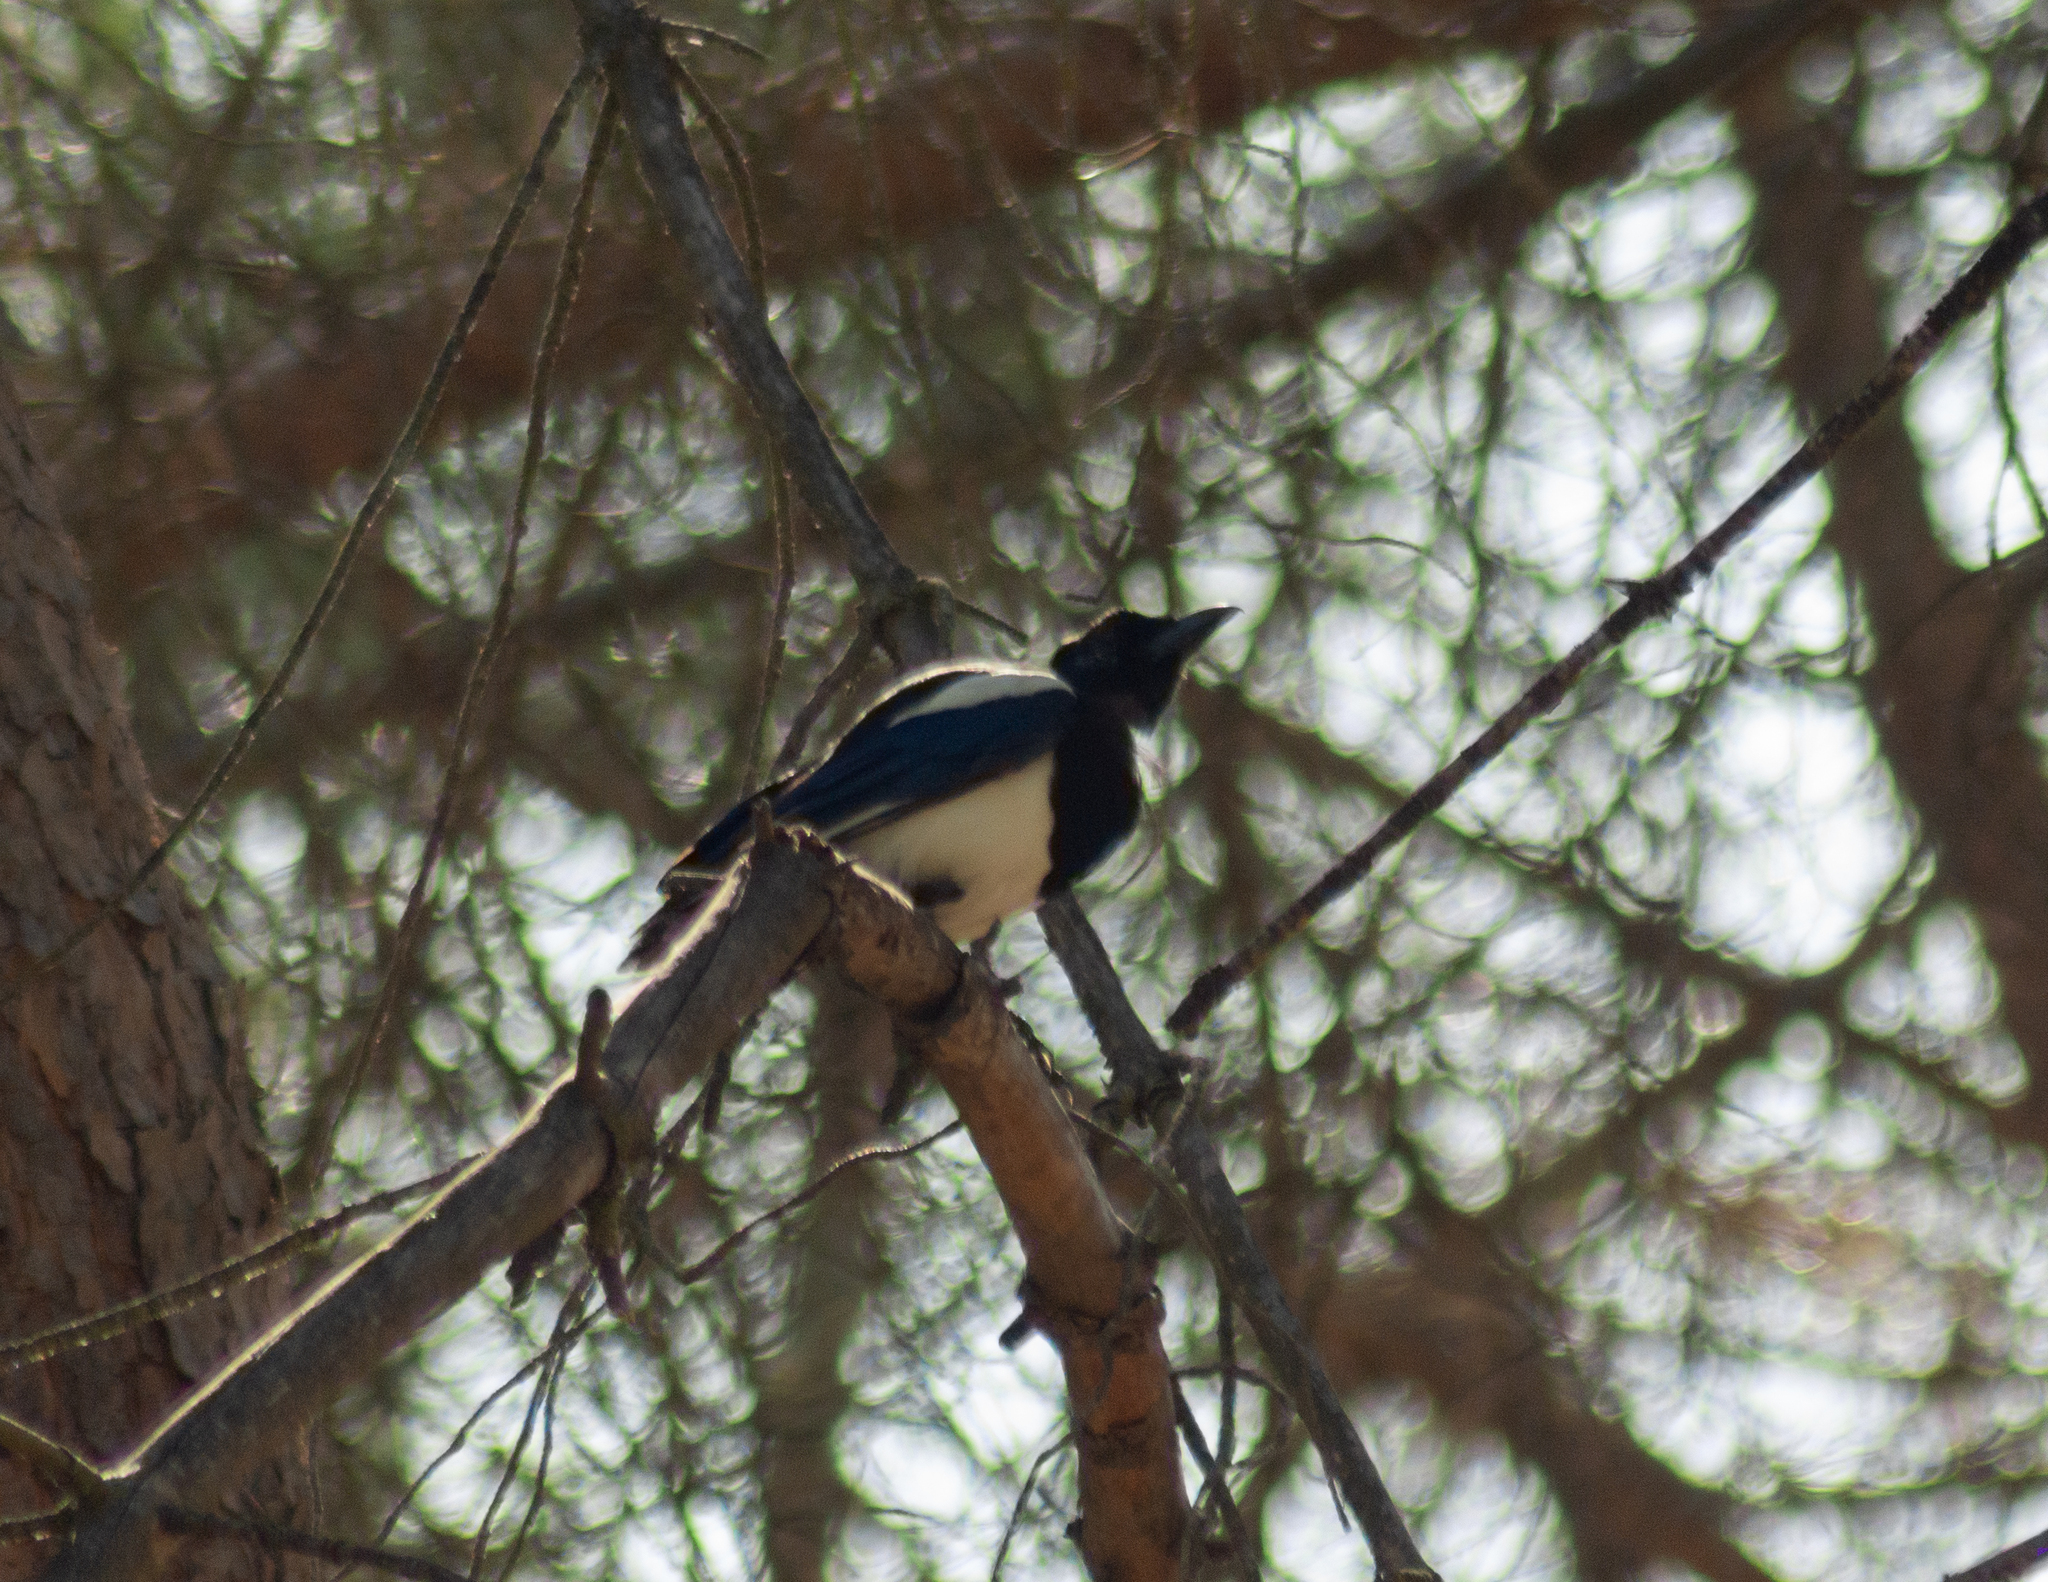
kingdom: Animalia
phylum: Chordata
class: Aves
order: Passeriformes
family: Corvidae
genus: Pica
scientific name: Pica pica
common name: Eurasian magpie
